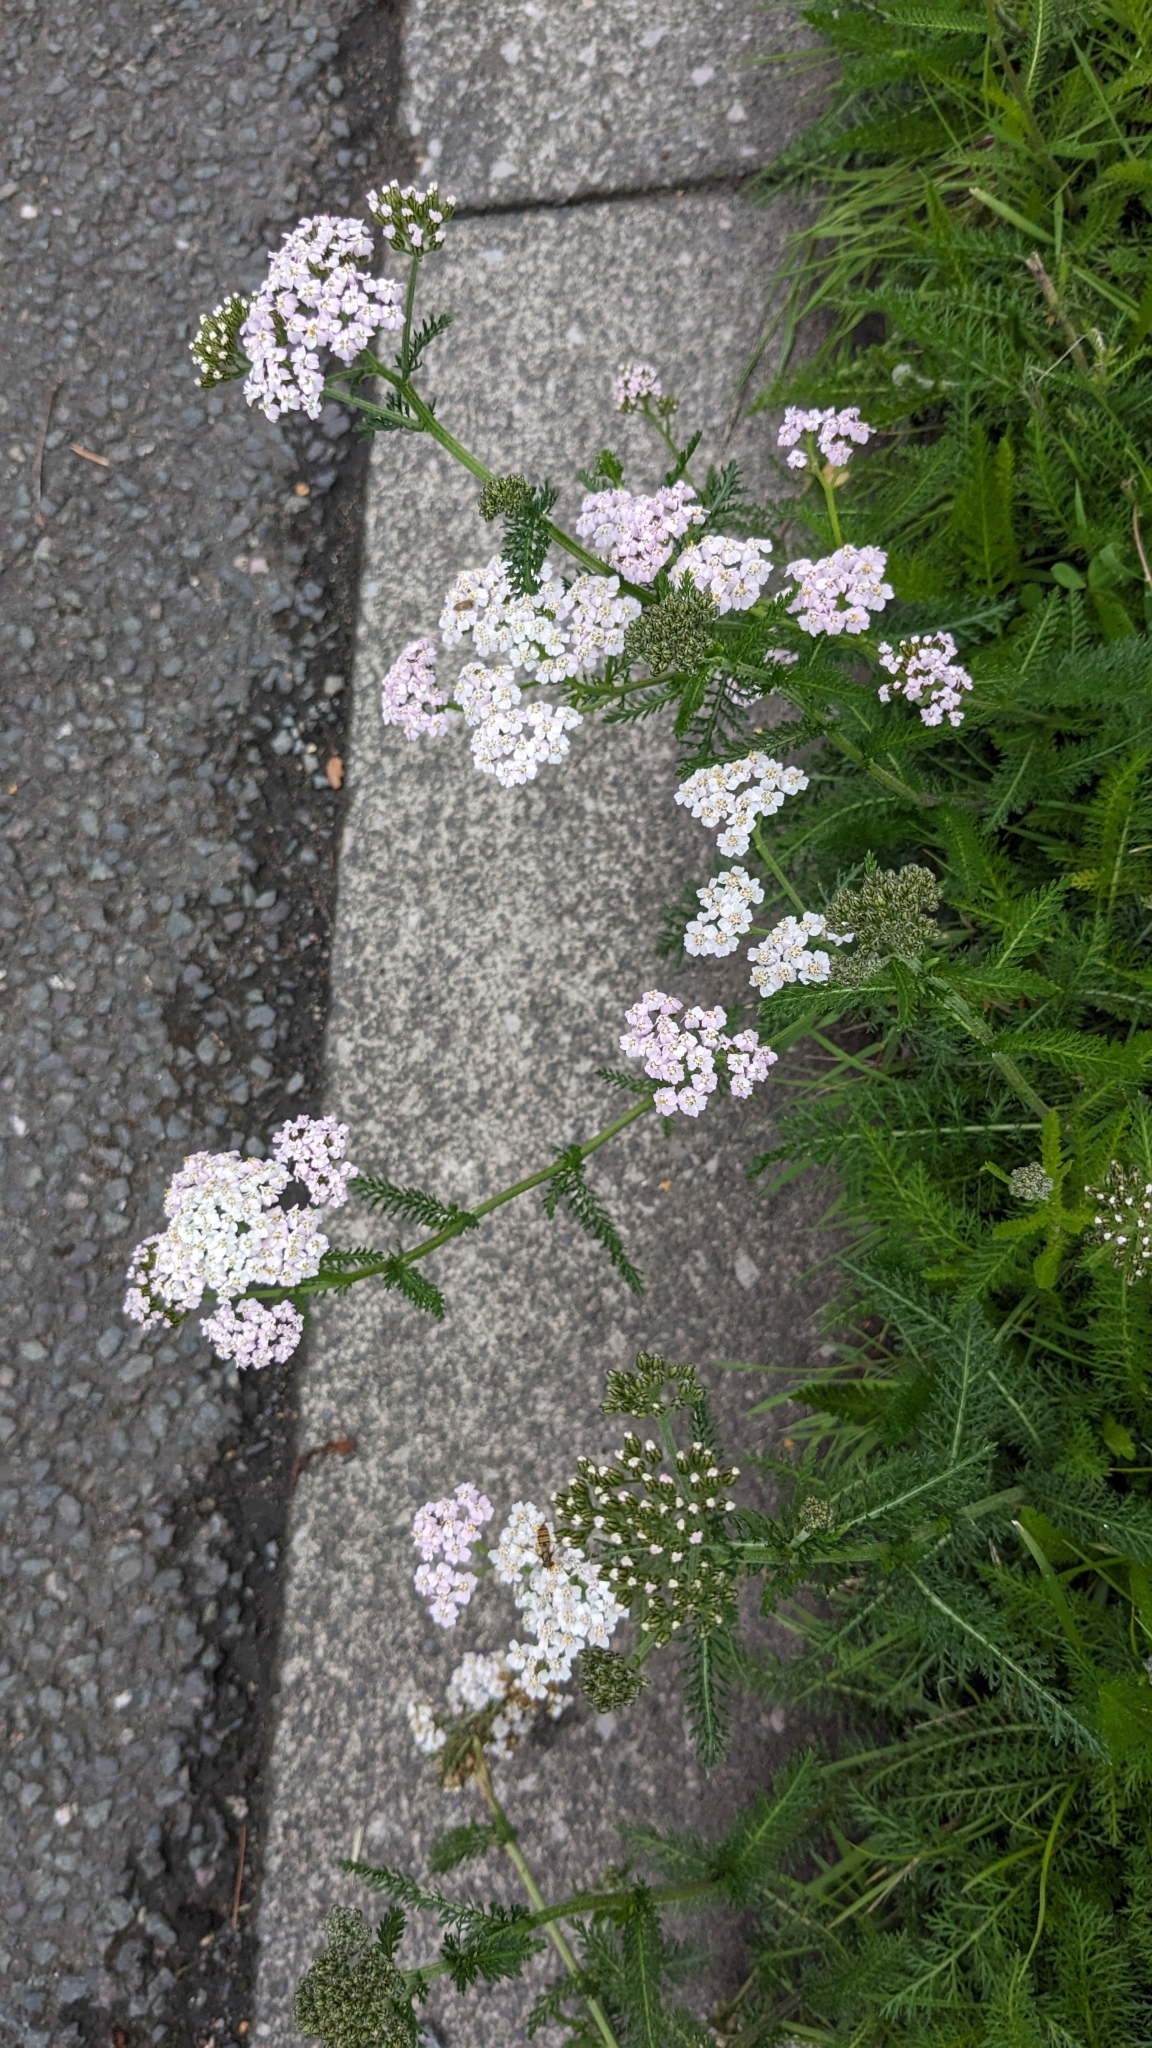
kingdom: Plantae
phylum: Tracheophyta
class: Magnoliopsida
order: Asterales
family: Asteraceae
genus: Achillea
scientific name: Achillea millefolium
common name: Yarrow
